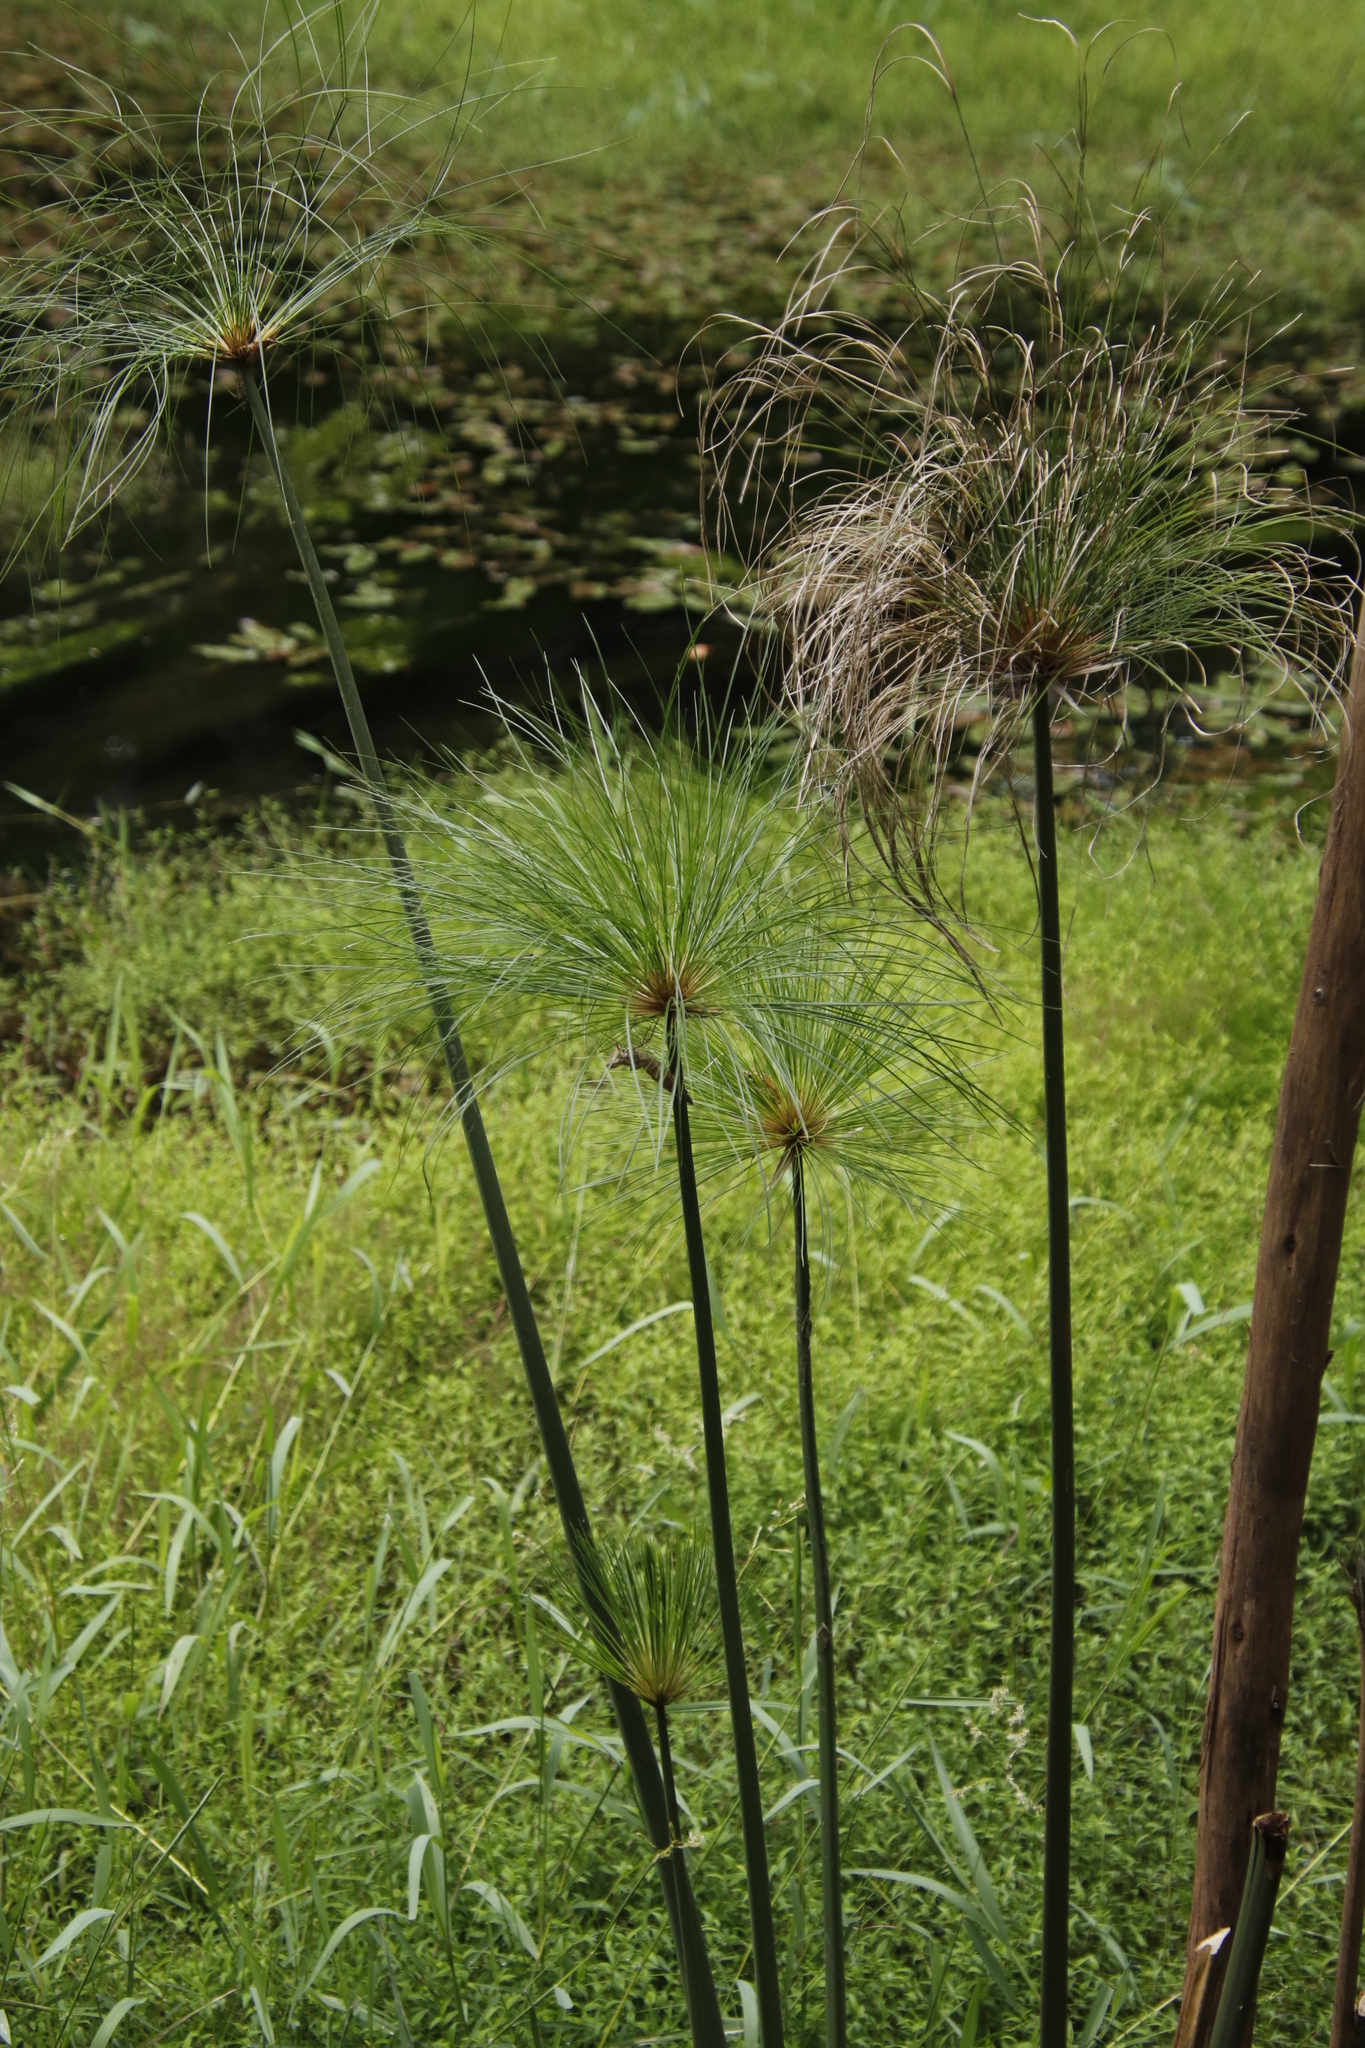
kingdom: Plantae
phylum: Tracheophyta
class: Liliopsida
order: Poales
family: Cyperaceae
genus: Cyperus
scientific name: Cyperus papyrus
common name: Papyrus
